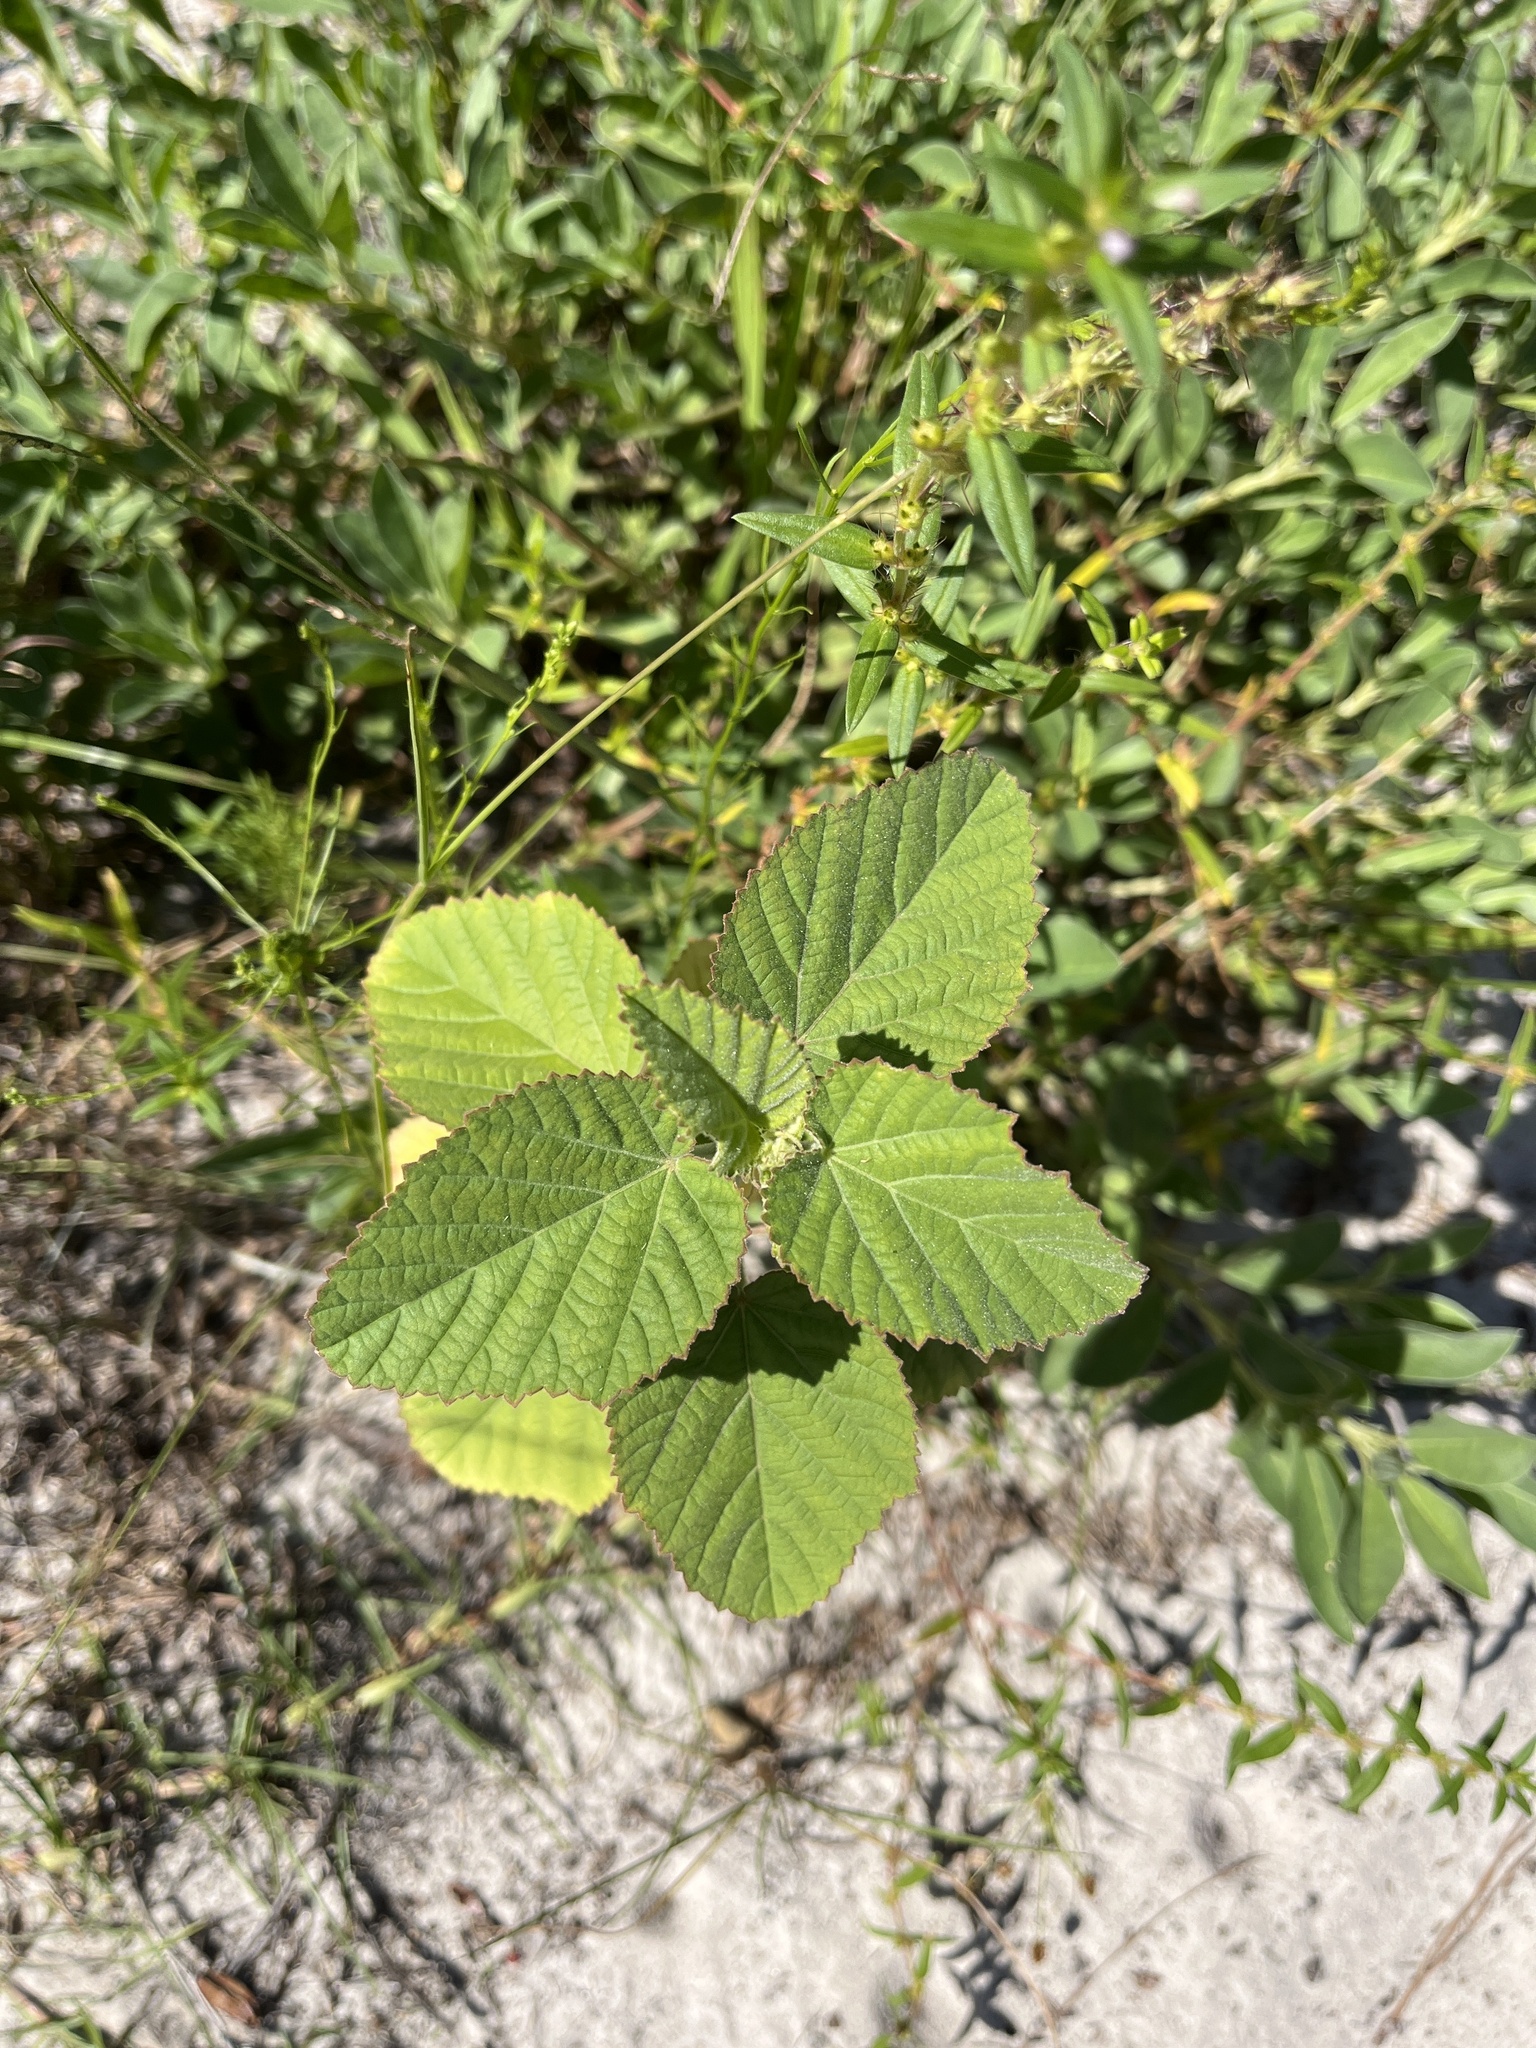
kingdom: Plantae
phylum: Tracheophyta
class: Magnoliopsida
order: Malvales
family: Malvaceae
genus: Sida
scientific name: Sida cordifolia
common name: Ilima
